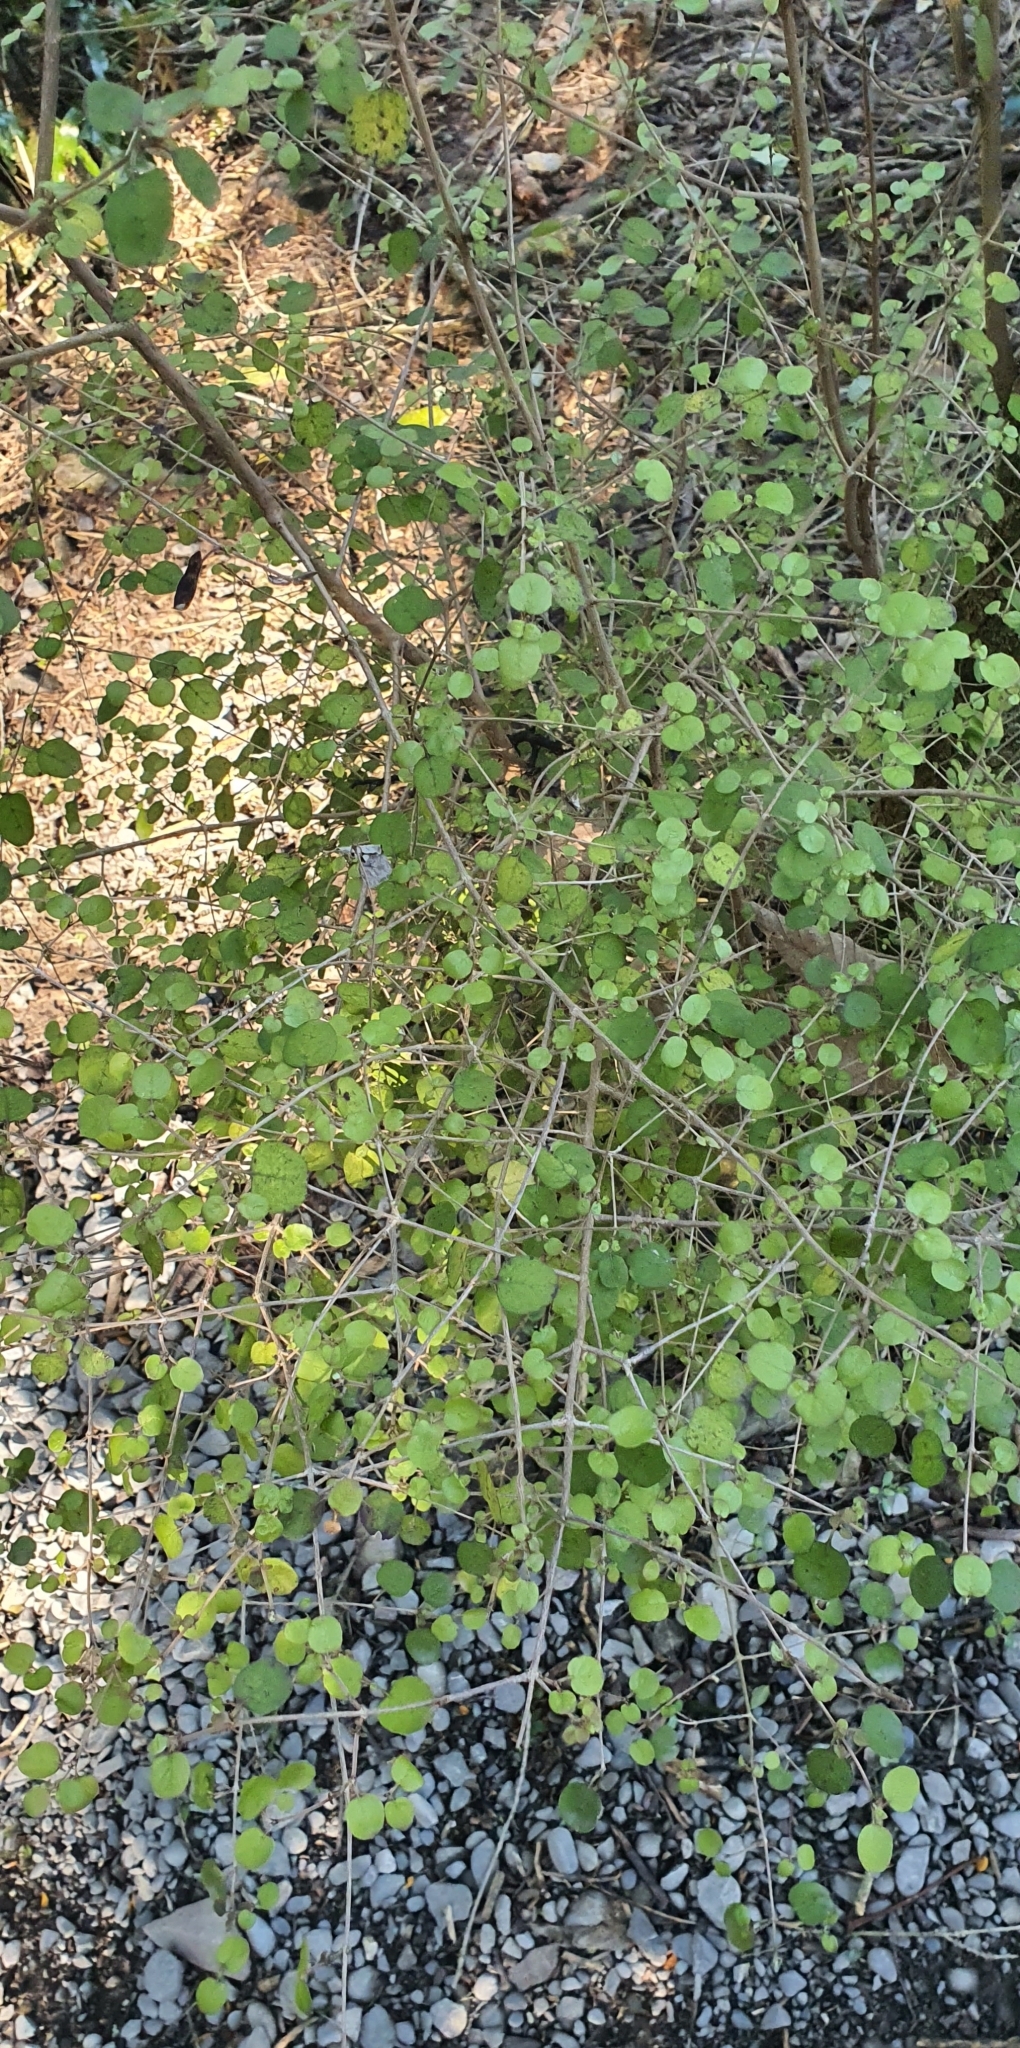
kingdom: Plantae
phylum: Tracheophyta
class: Magnoliopsida
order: Gentianales
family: Rubiaceae
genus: Coprosma
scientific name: Coprosma rotundifolia
